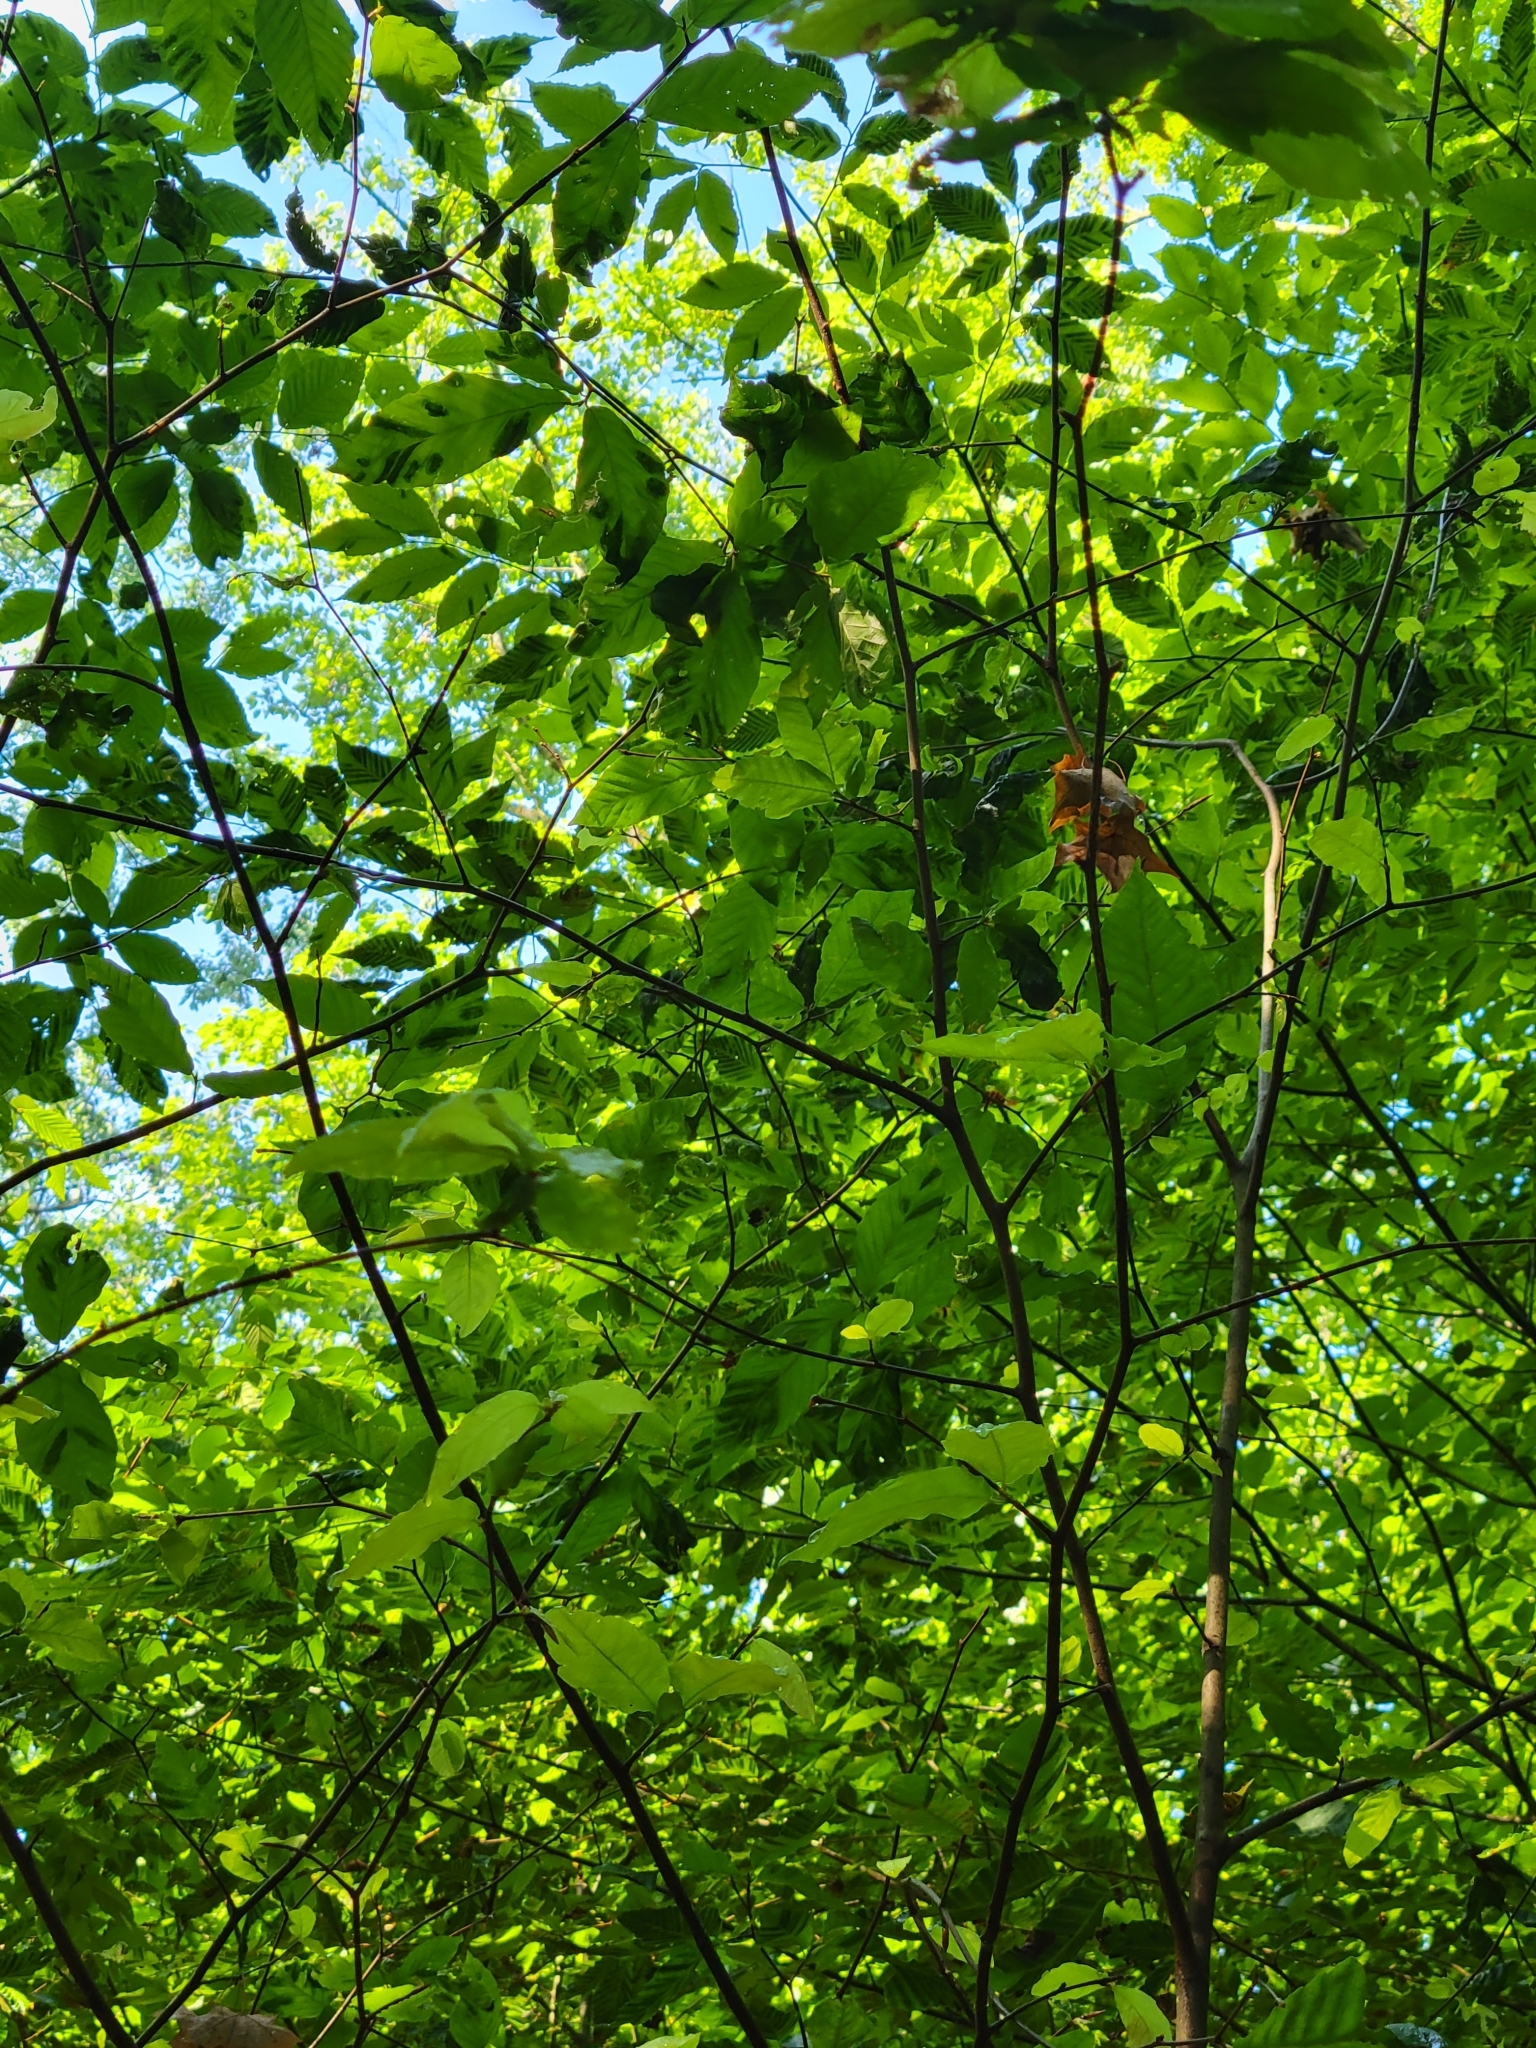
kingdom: Animalia
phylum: Nematoda
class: Chromadorea
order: Rhabditida
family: Anguinidae
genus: Litylenchus
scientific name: Litylenchus crenatae
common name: Beech leaf disease
